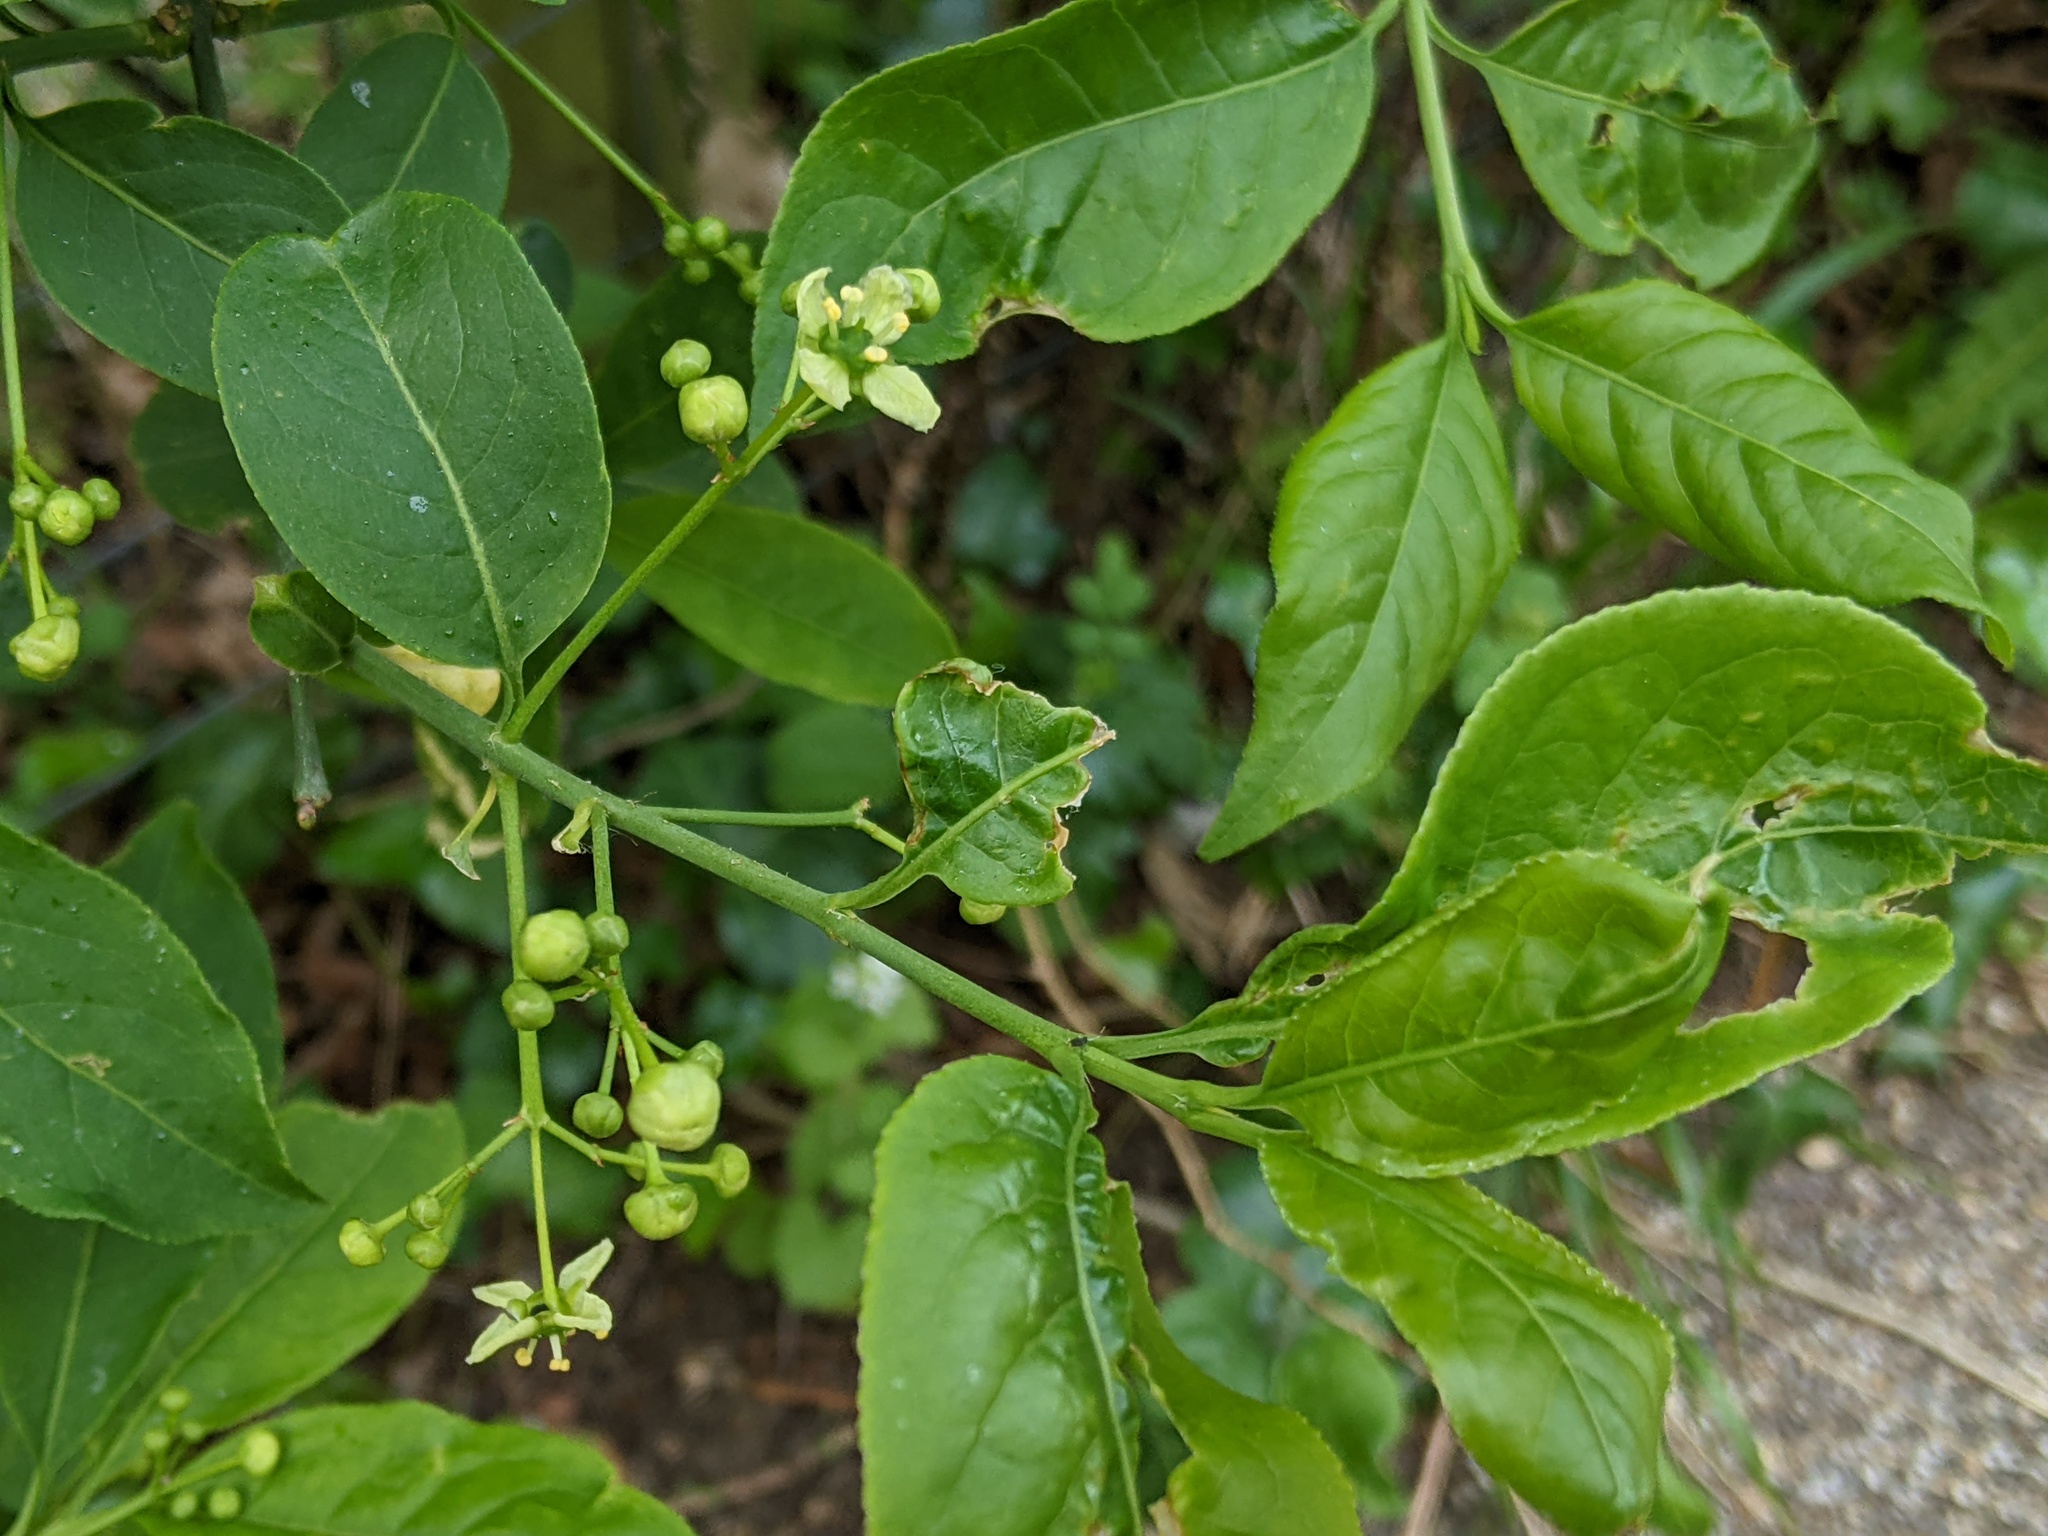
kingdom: Plantae
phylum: Tracheophyta
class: Magnoliopsida
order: Celastrales
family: Celastraceae
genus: Euonymus
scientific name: Euonymus europaeus
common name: Spindle
